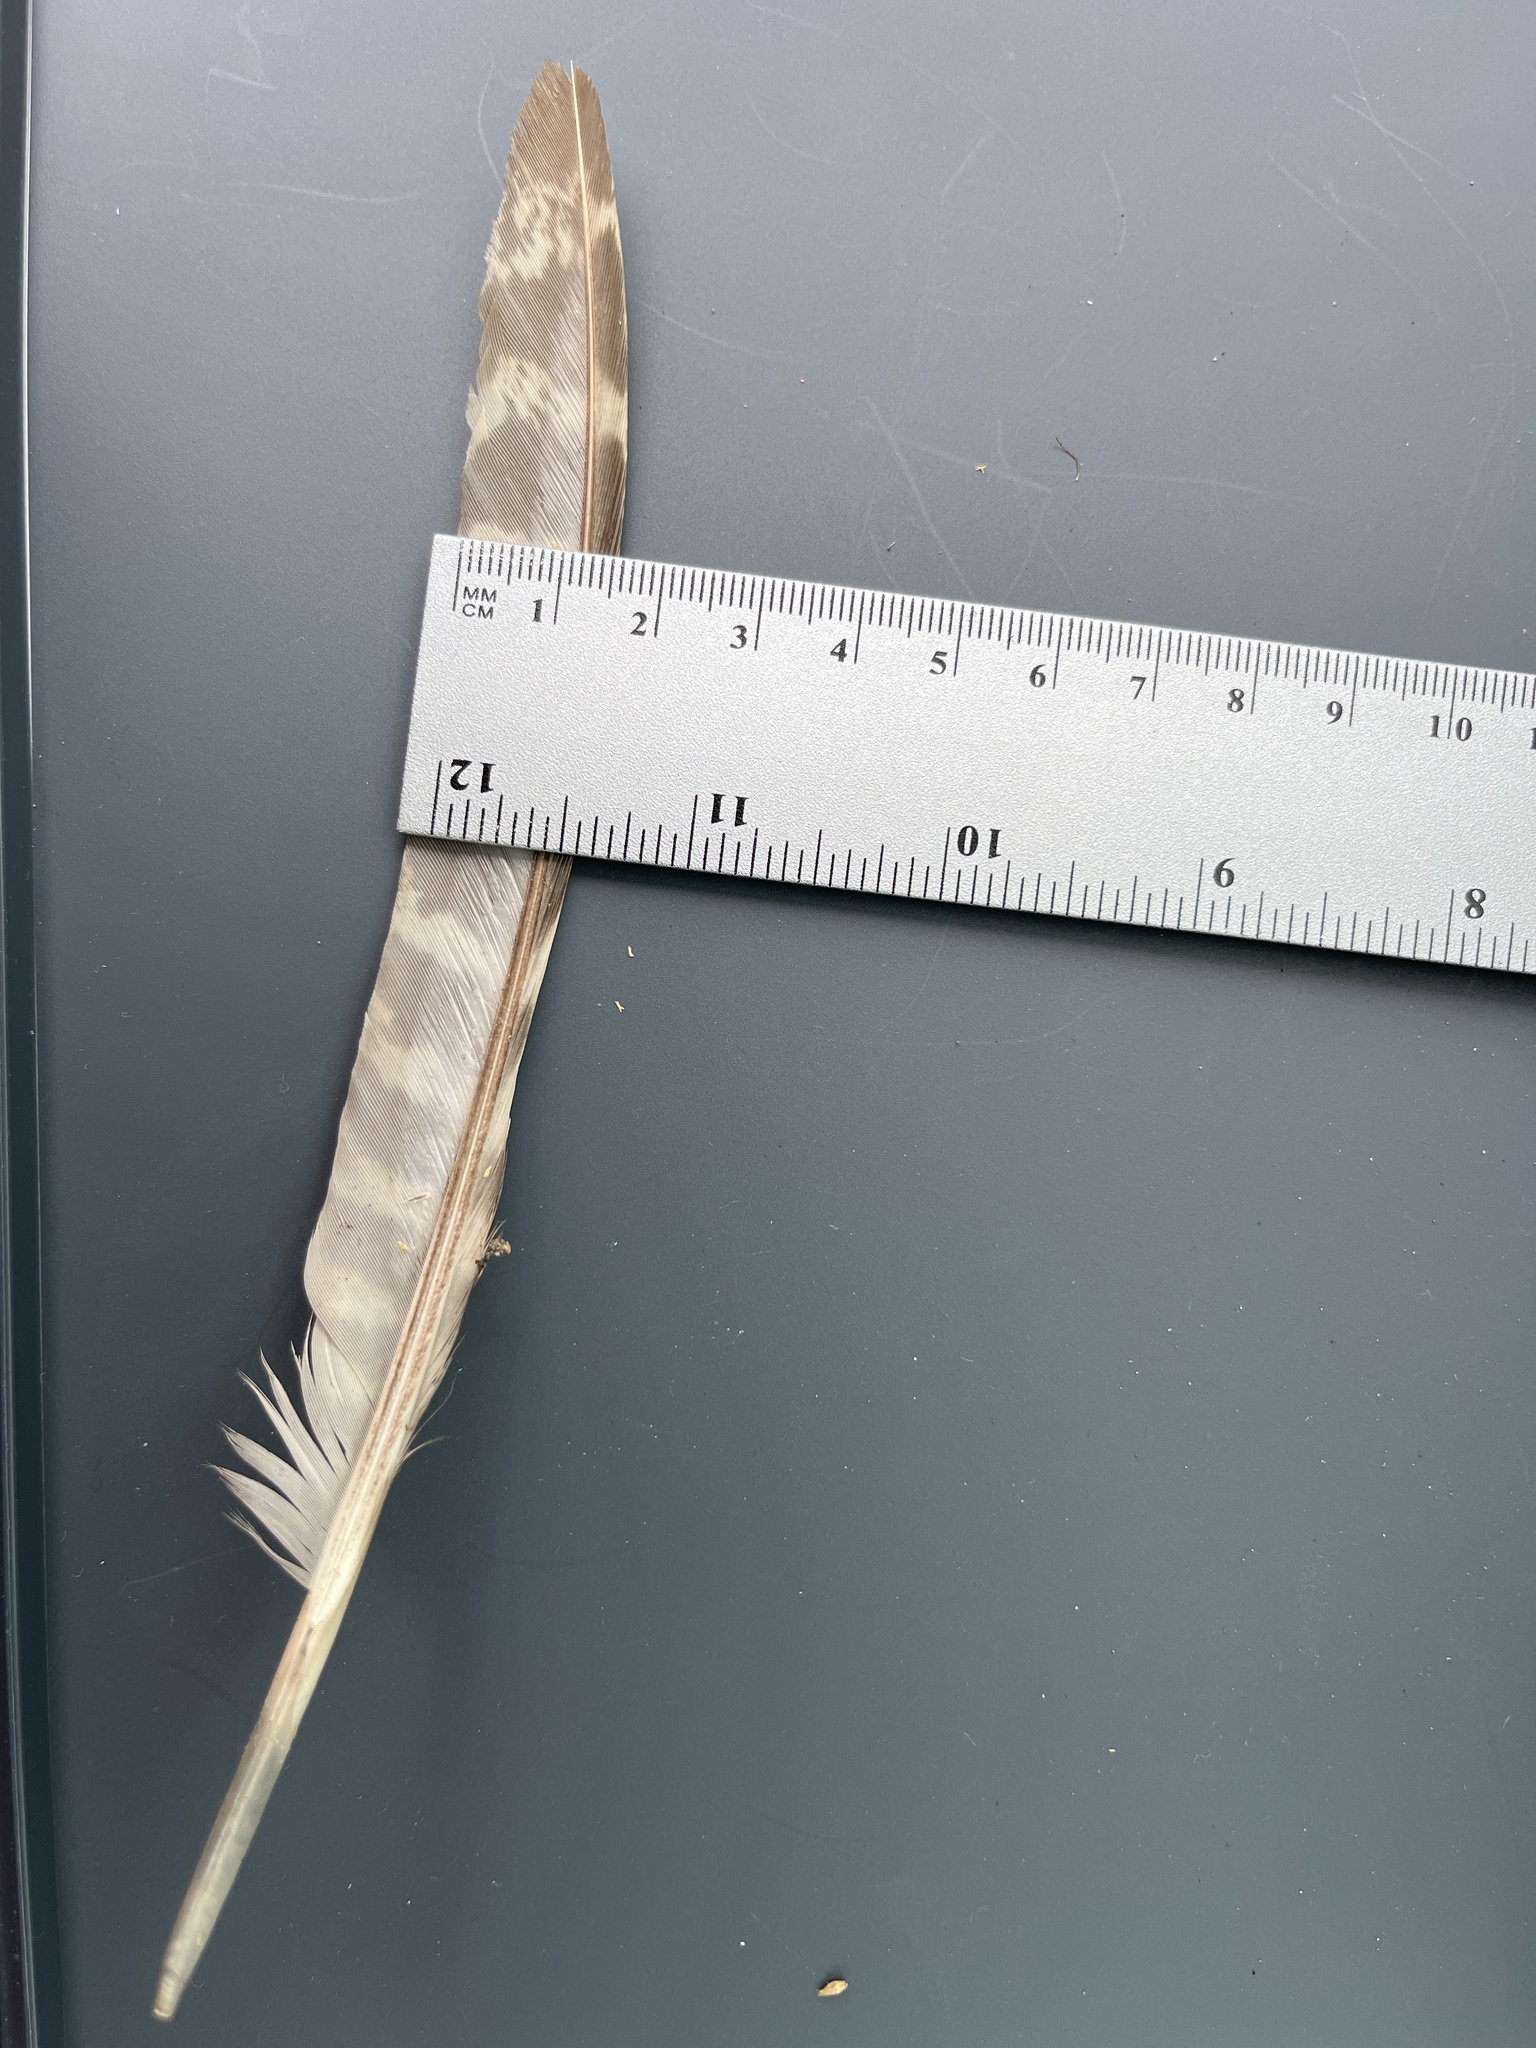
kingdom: Animalia
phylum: Chordata
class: Aves
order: Galliformes
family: Phasianidae
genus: Phasianus
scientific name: Phasianus colchicus
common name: Common pheasant
